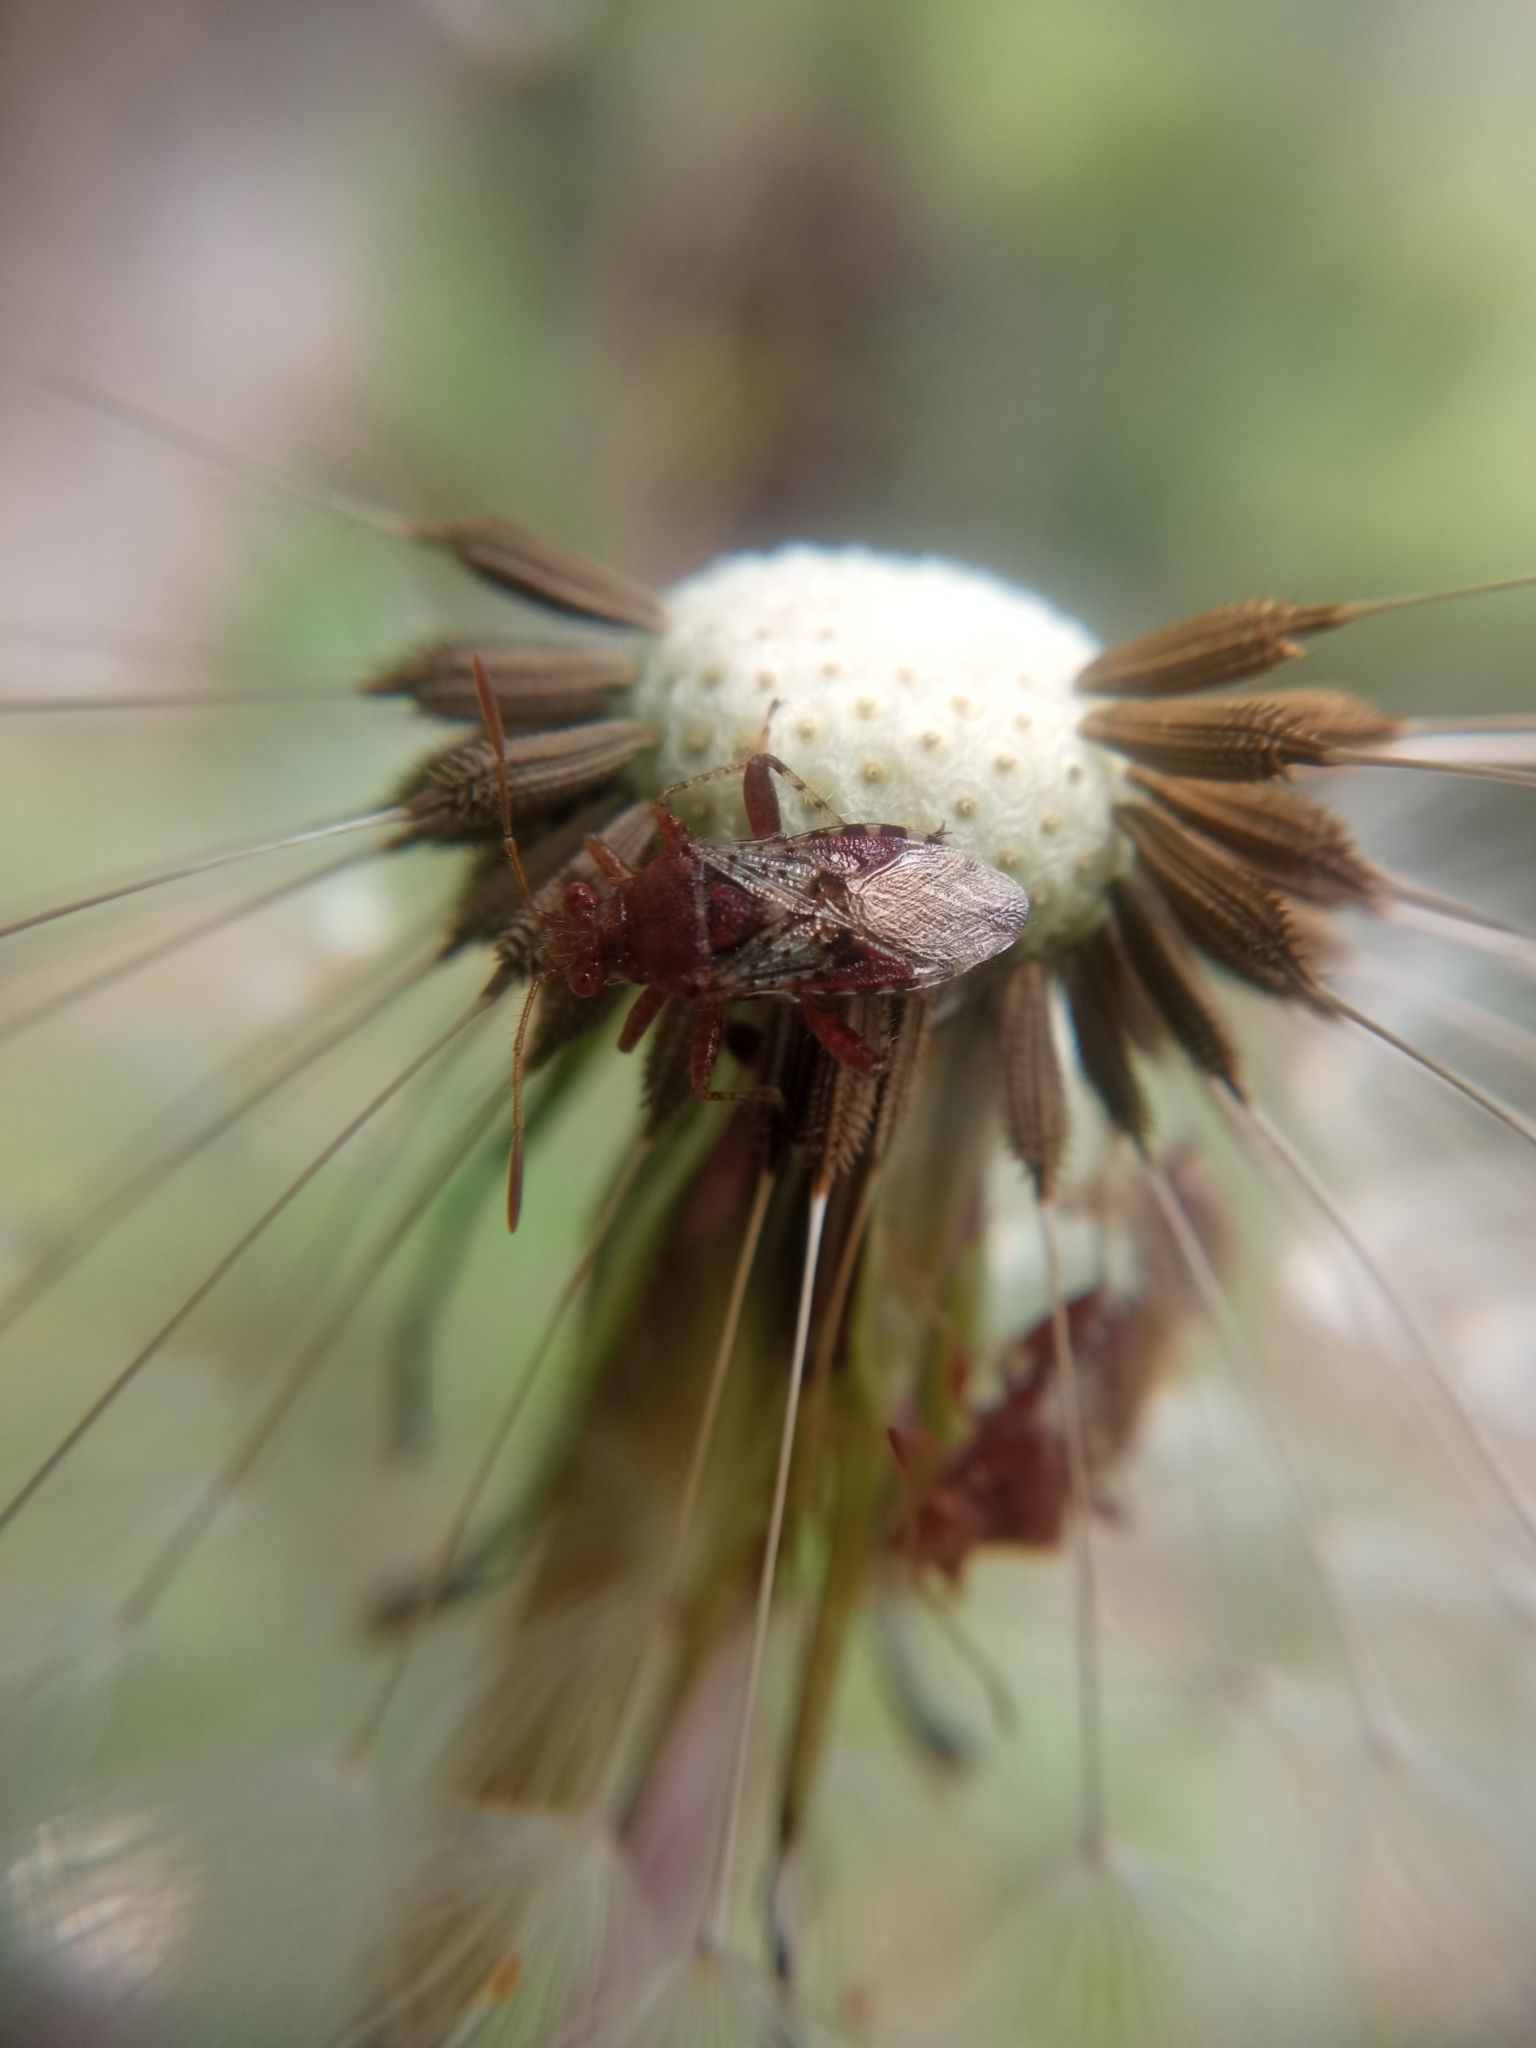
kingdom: Animalia
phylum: Arthropoda
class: Insecta
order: Hemiptera
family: Rhopalidae
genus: Rhopalus
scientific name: Rhopalus subrufus
